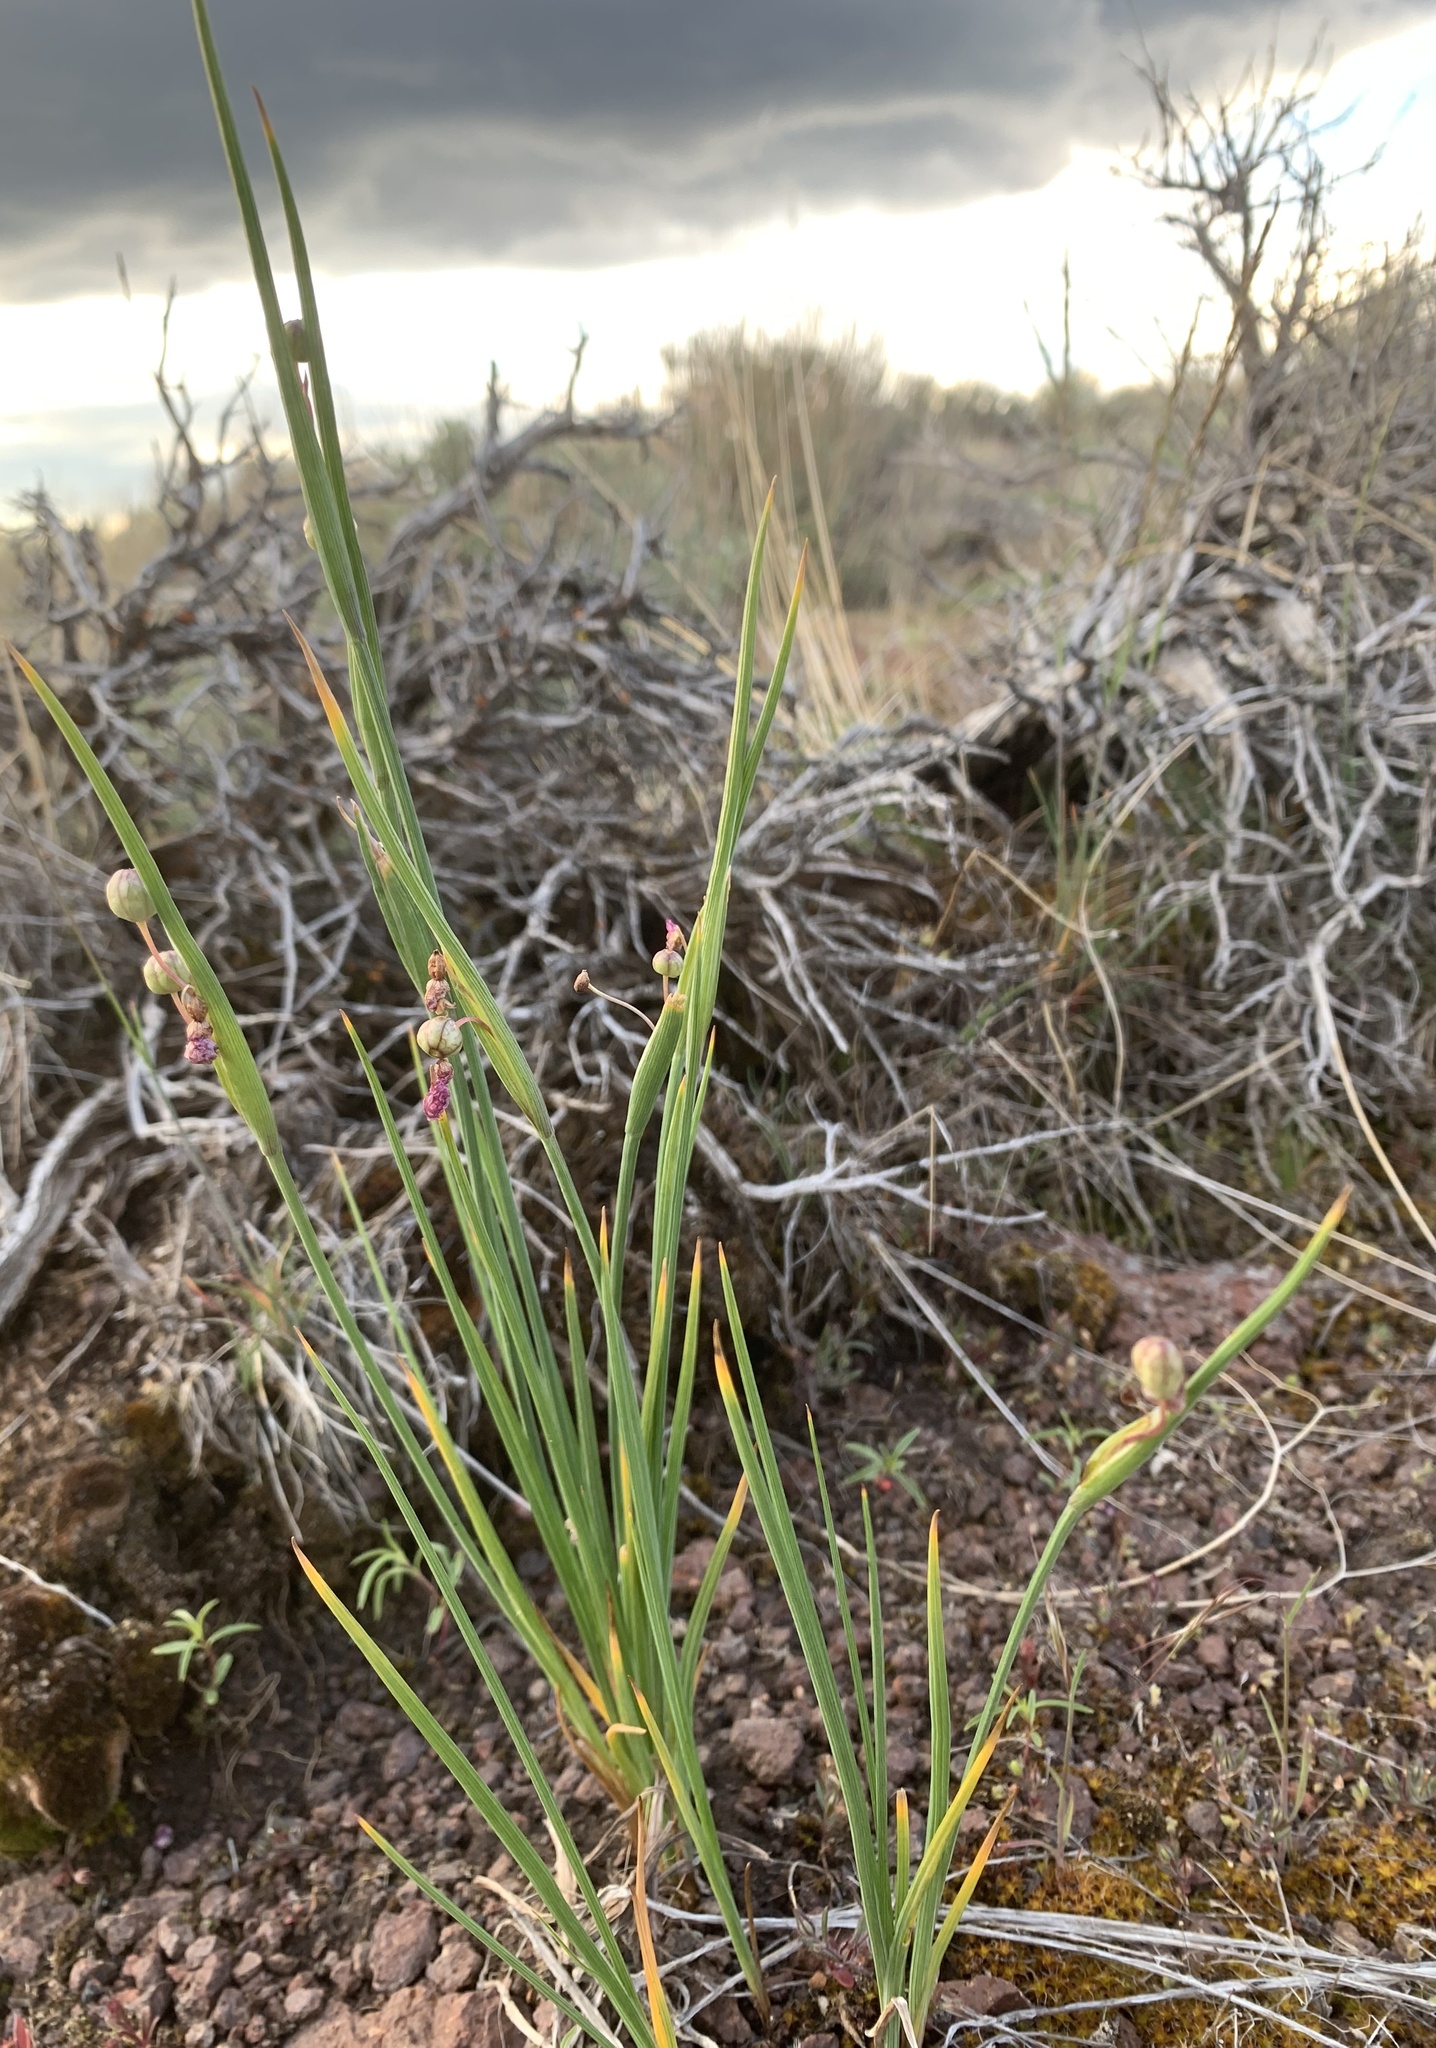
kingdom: Plantae
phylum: Tracheophyta
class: Liliopsida
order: Asparagales
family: Iridaceae
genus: Olsynium
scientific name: Olsynium douglasii
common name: Douglas' grasswidow
